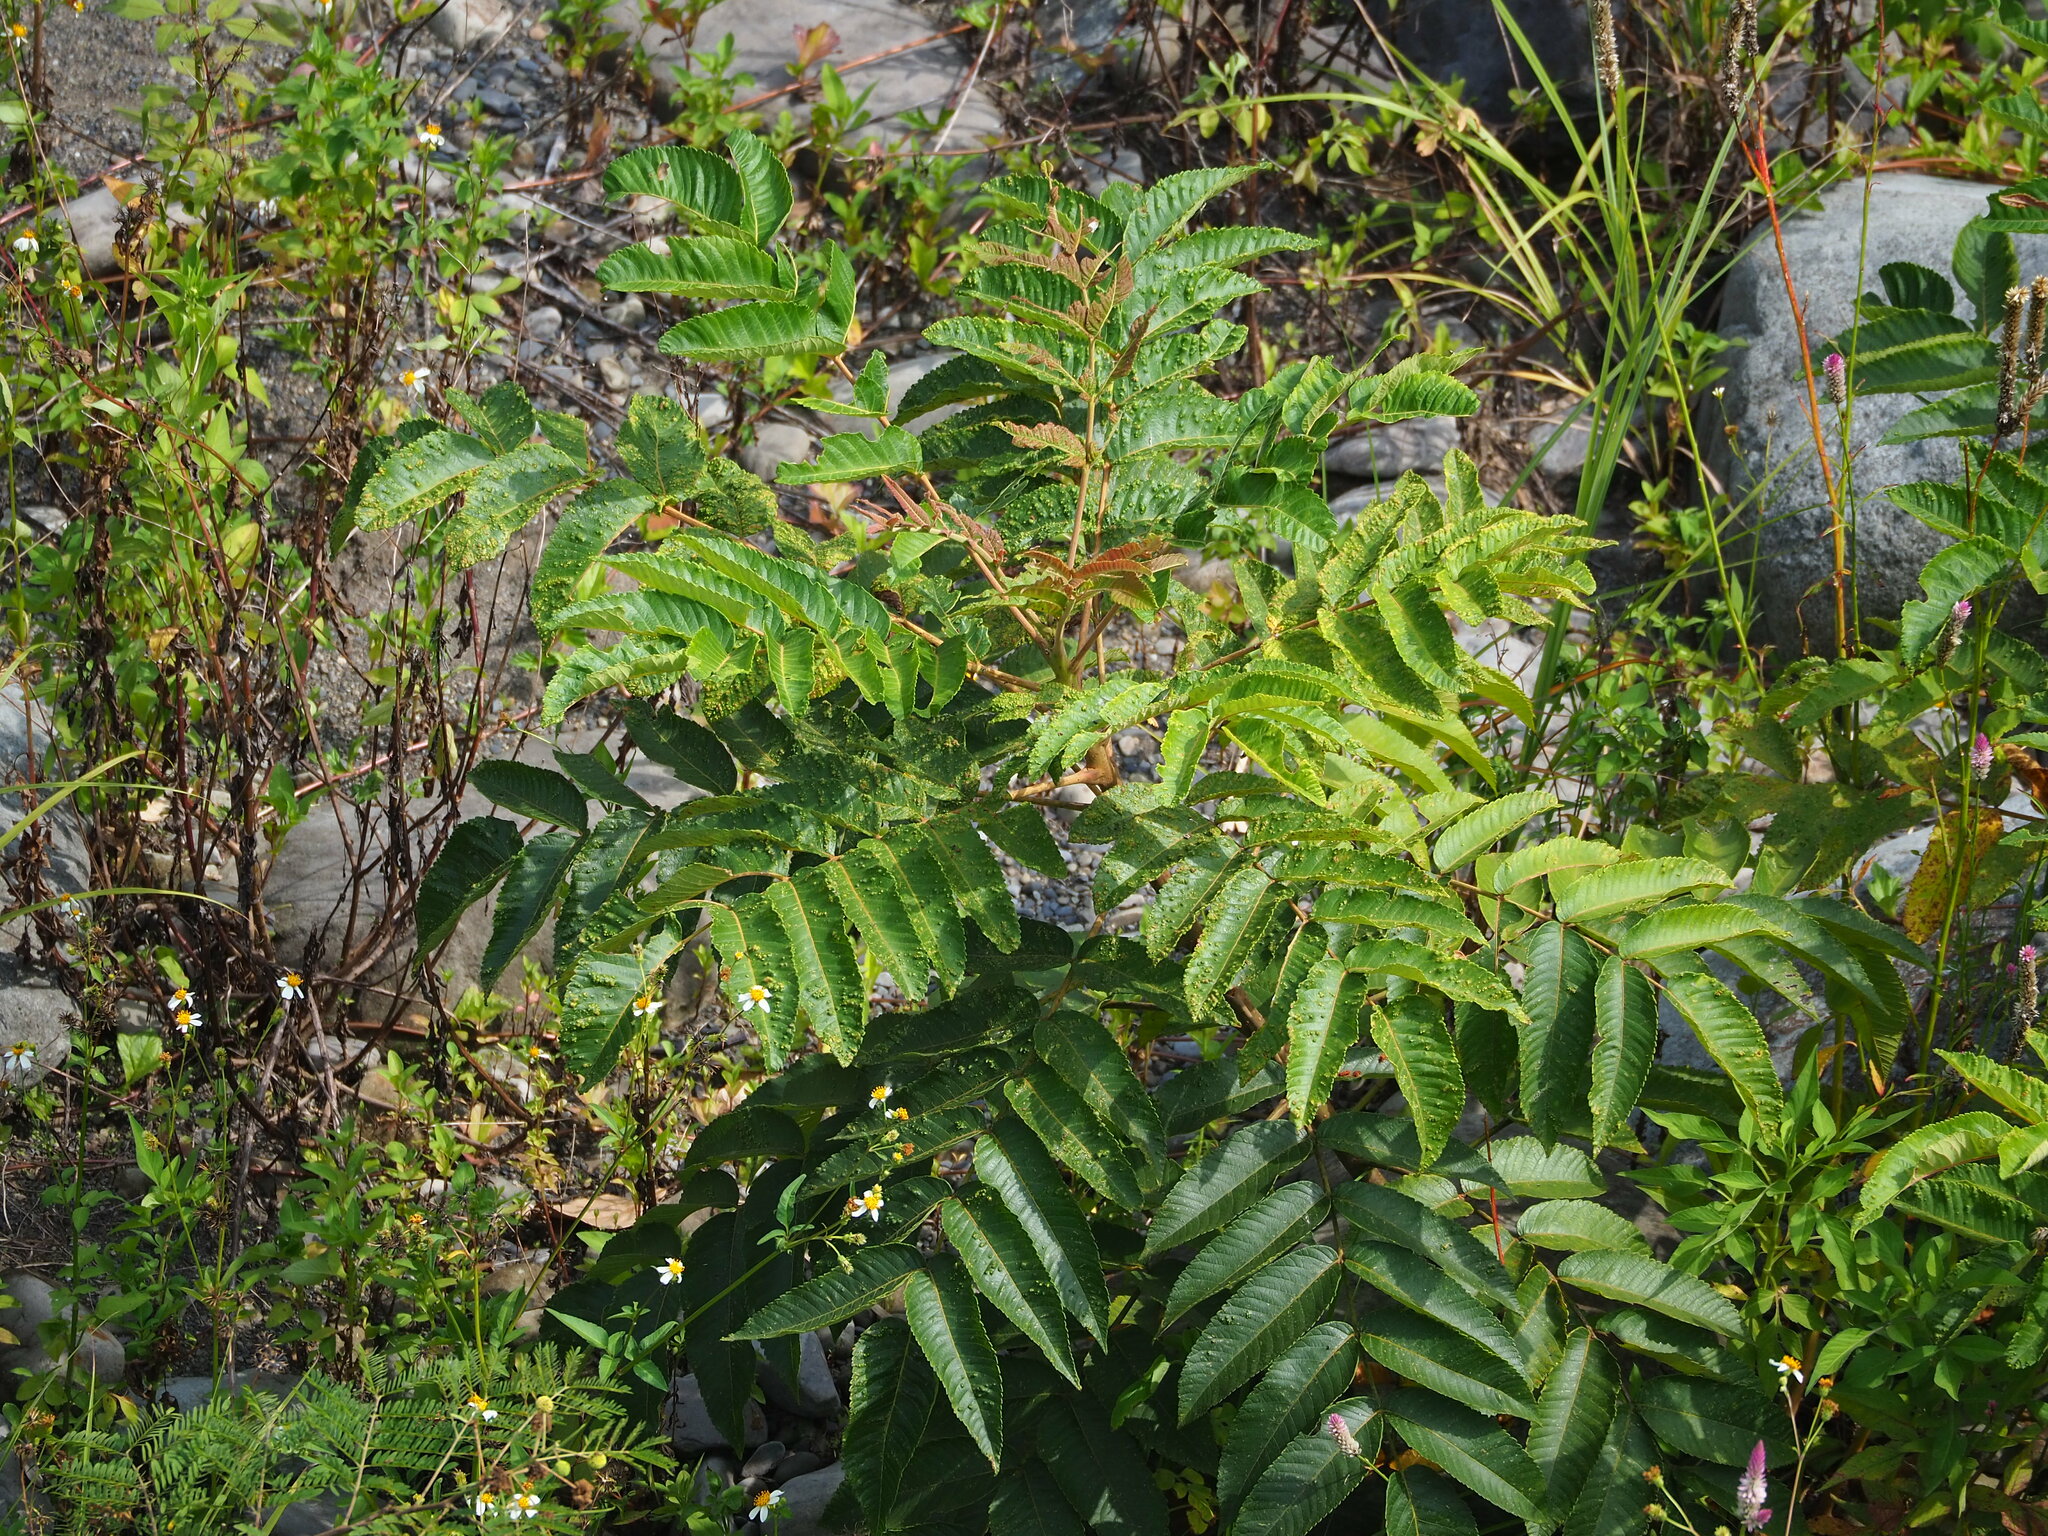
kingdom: Plantae
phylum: Tracheophyta
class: Magnoliopsida
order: Sapindales
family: Anacardiaceae
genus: Rhus
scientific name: Rhus chinensis
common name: Chinese gall
